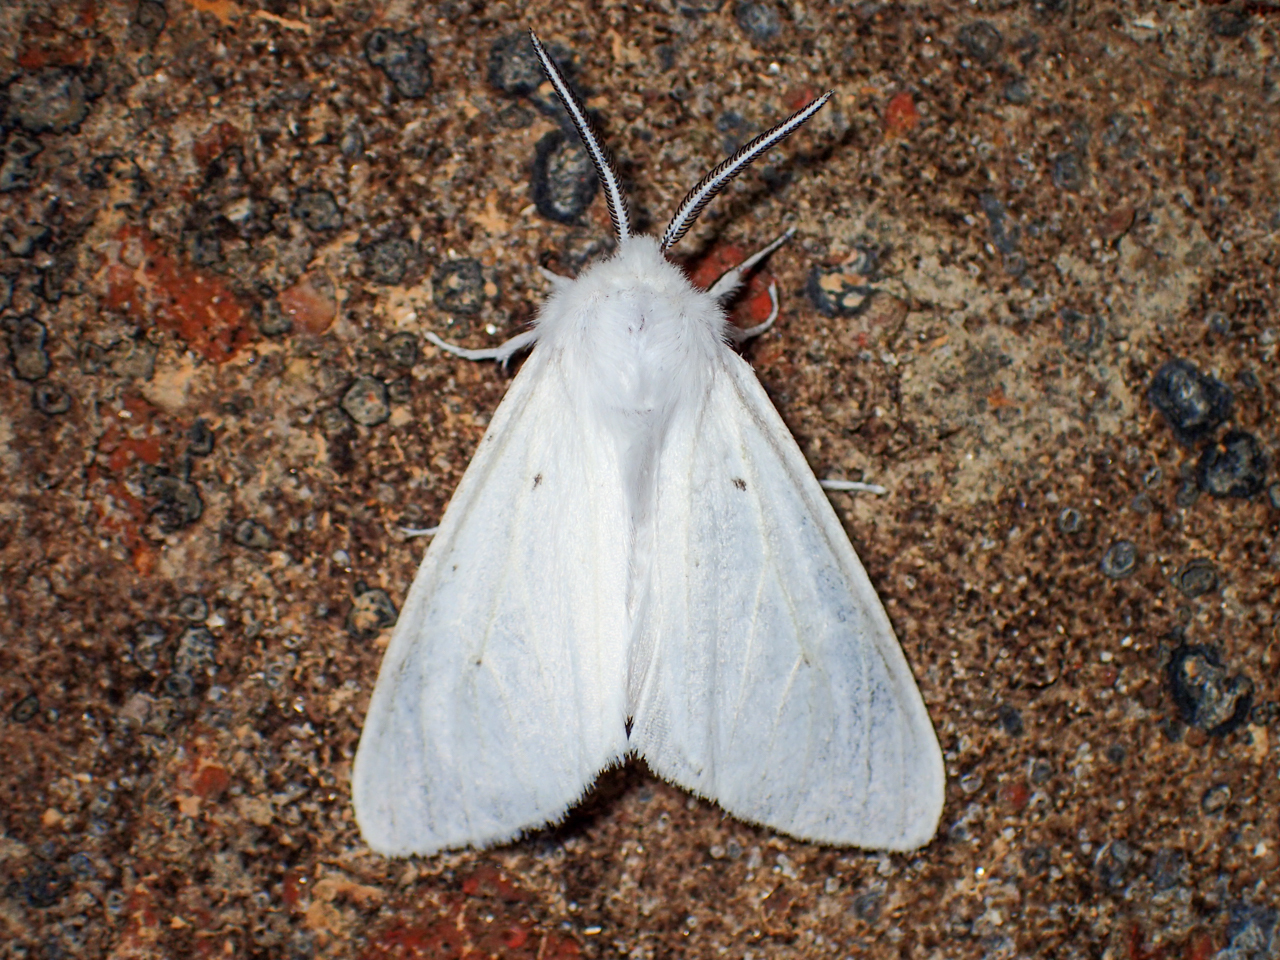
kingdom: Animalia
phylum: Arthropoda
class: Insecta
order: Lepidoptera
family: Erebidae
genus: Spilosoma
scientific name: Spilosoma congrua
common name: Agreeable tiger moth
